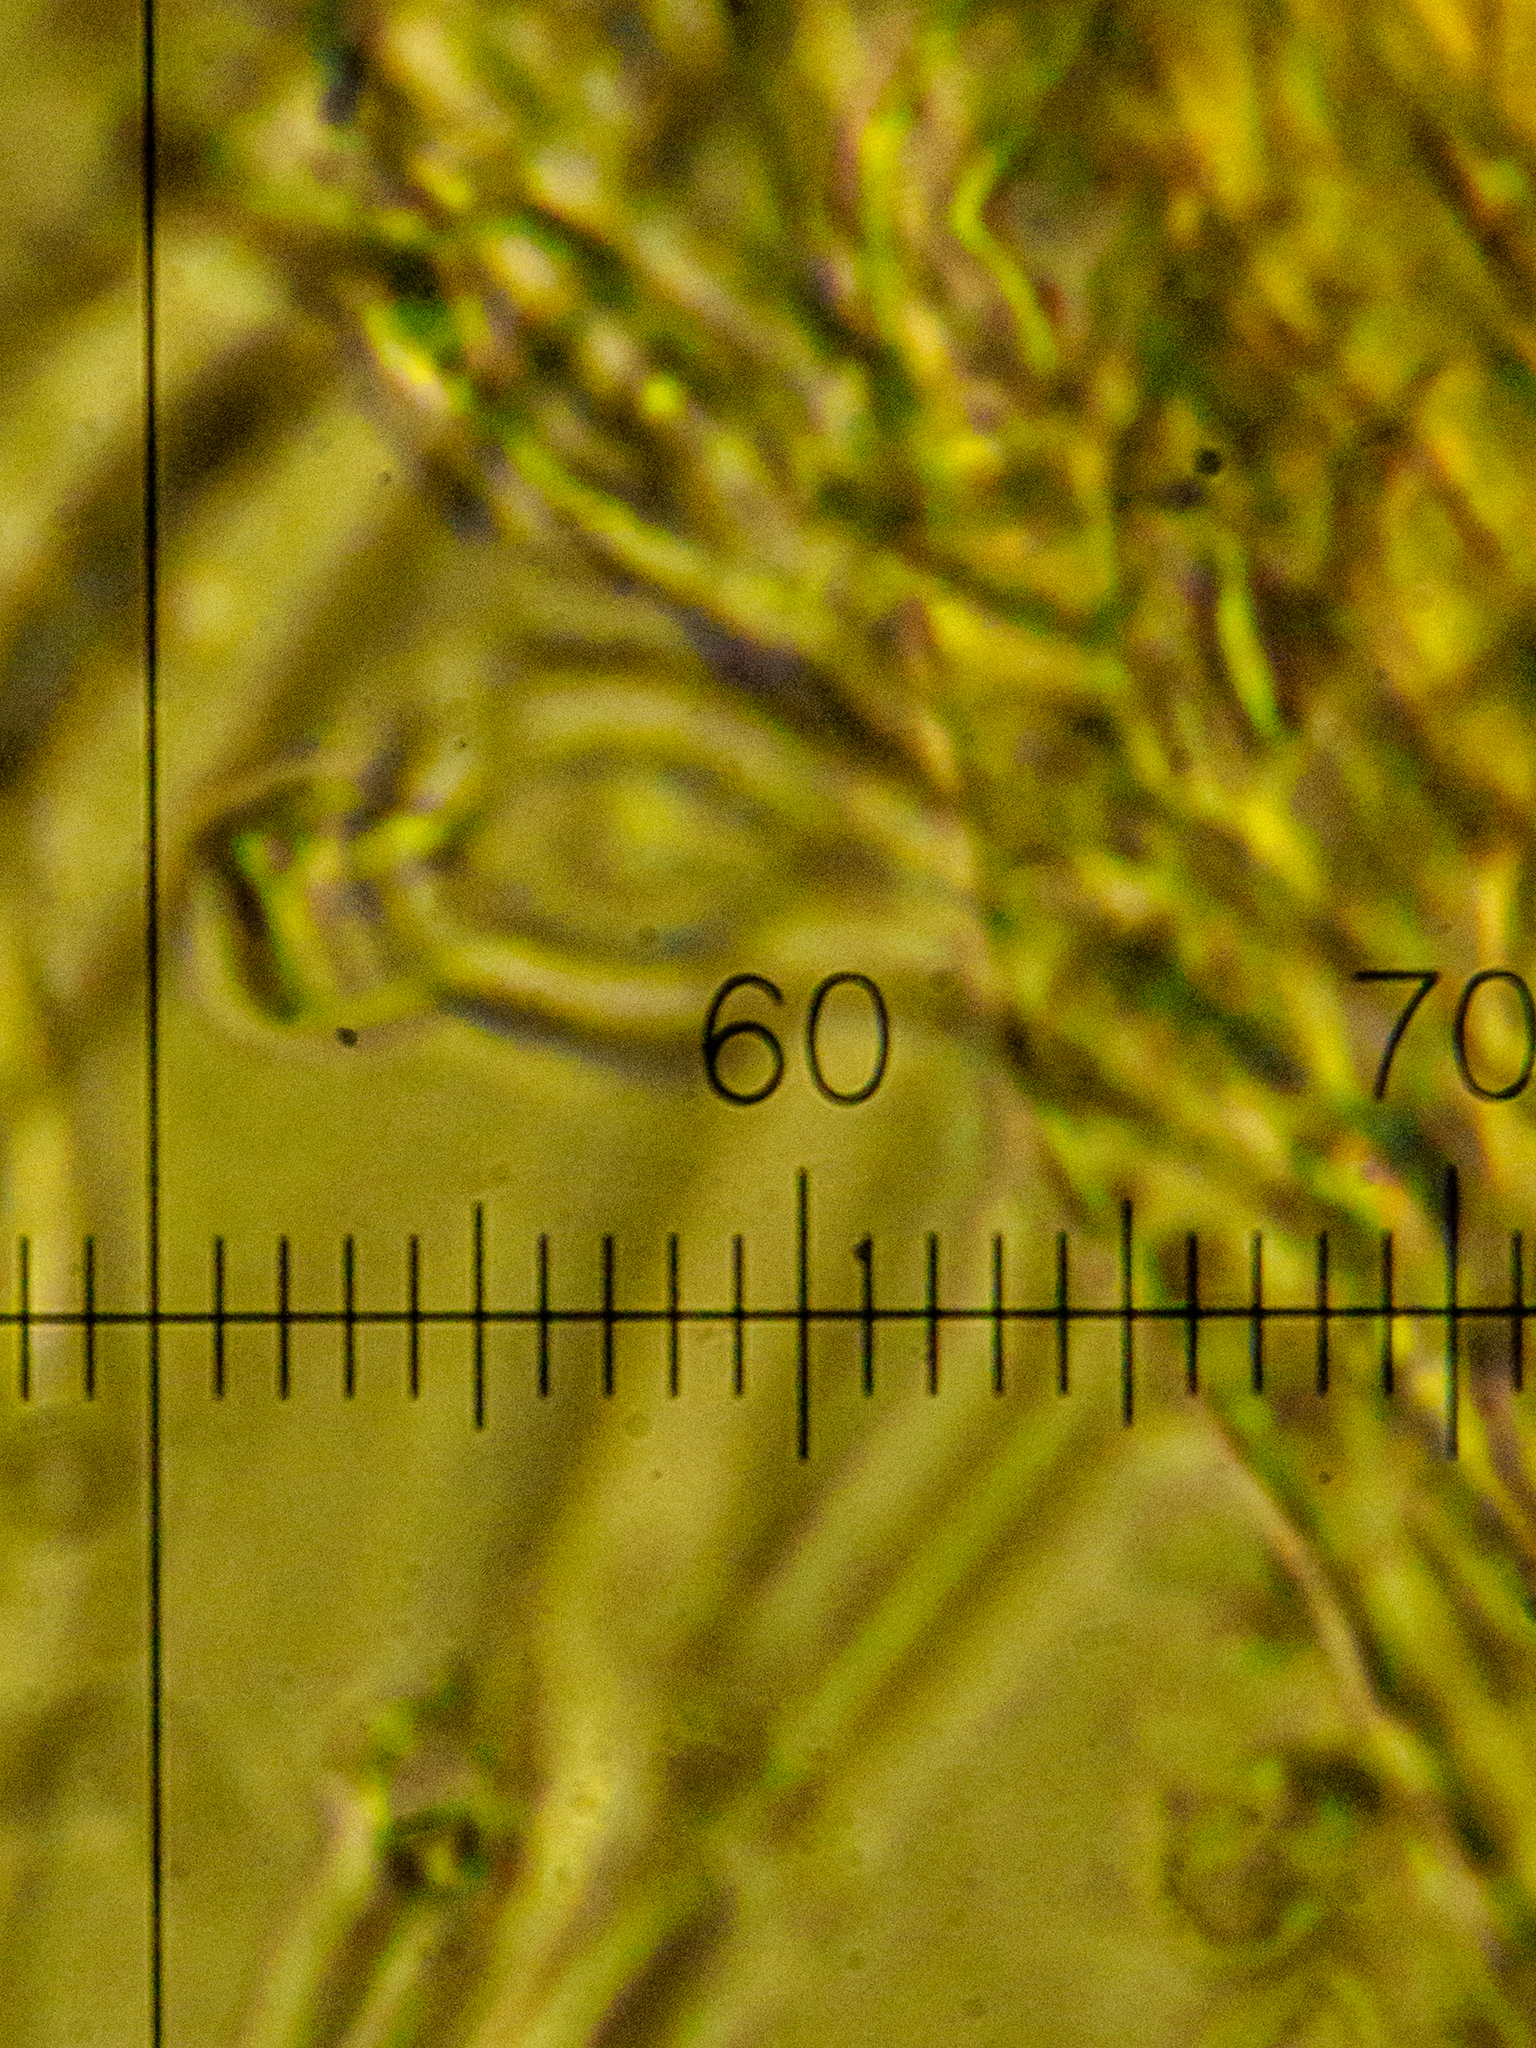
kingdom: Fungi
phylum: Basidiomycota
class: Agaricomycetes
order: Hymenochaetales
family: Schizoporaceae
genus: Xylodon
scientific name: Xylodon flaviporus
